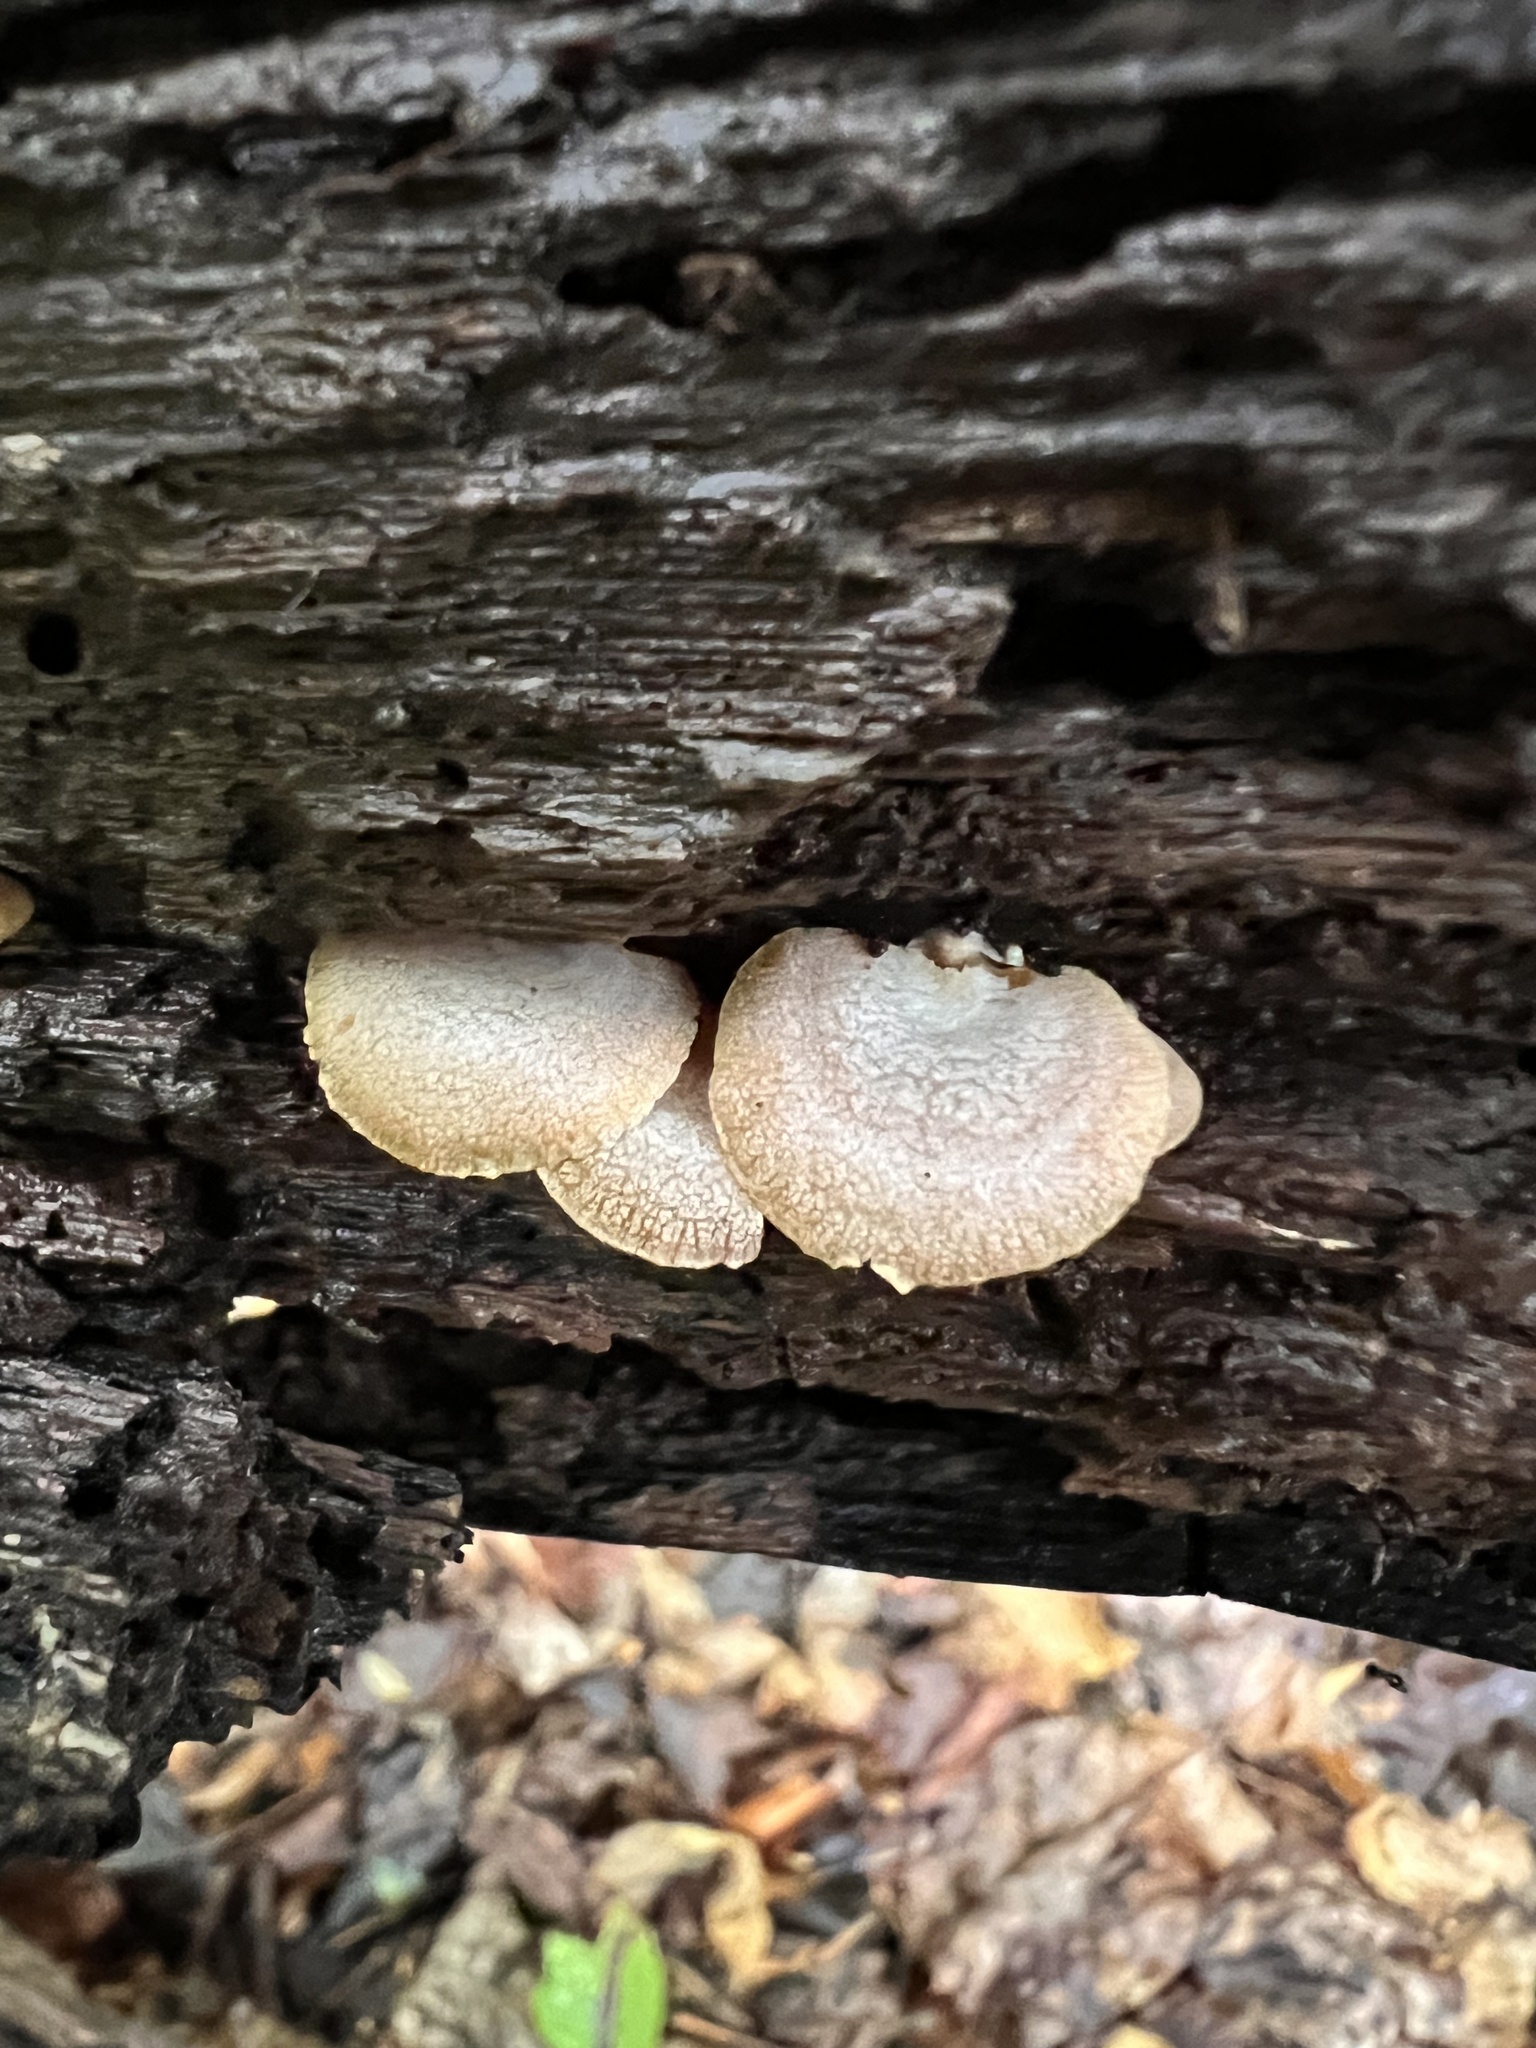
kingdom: Fungi
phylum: Basidiomycota
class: Agaricomycetes
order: Agaricales
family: Mycenaceae
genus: Panellus
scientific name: Panellus stipticus
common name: Bitter oysterling
